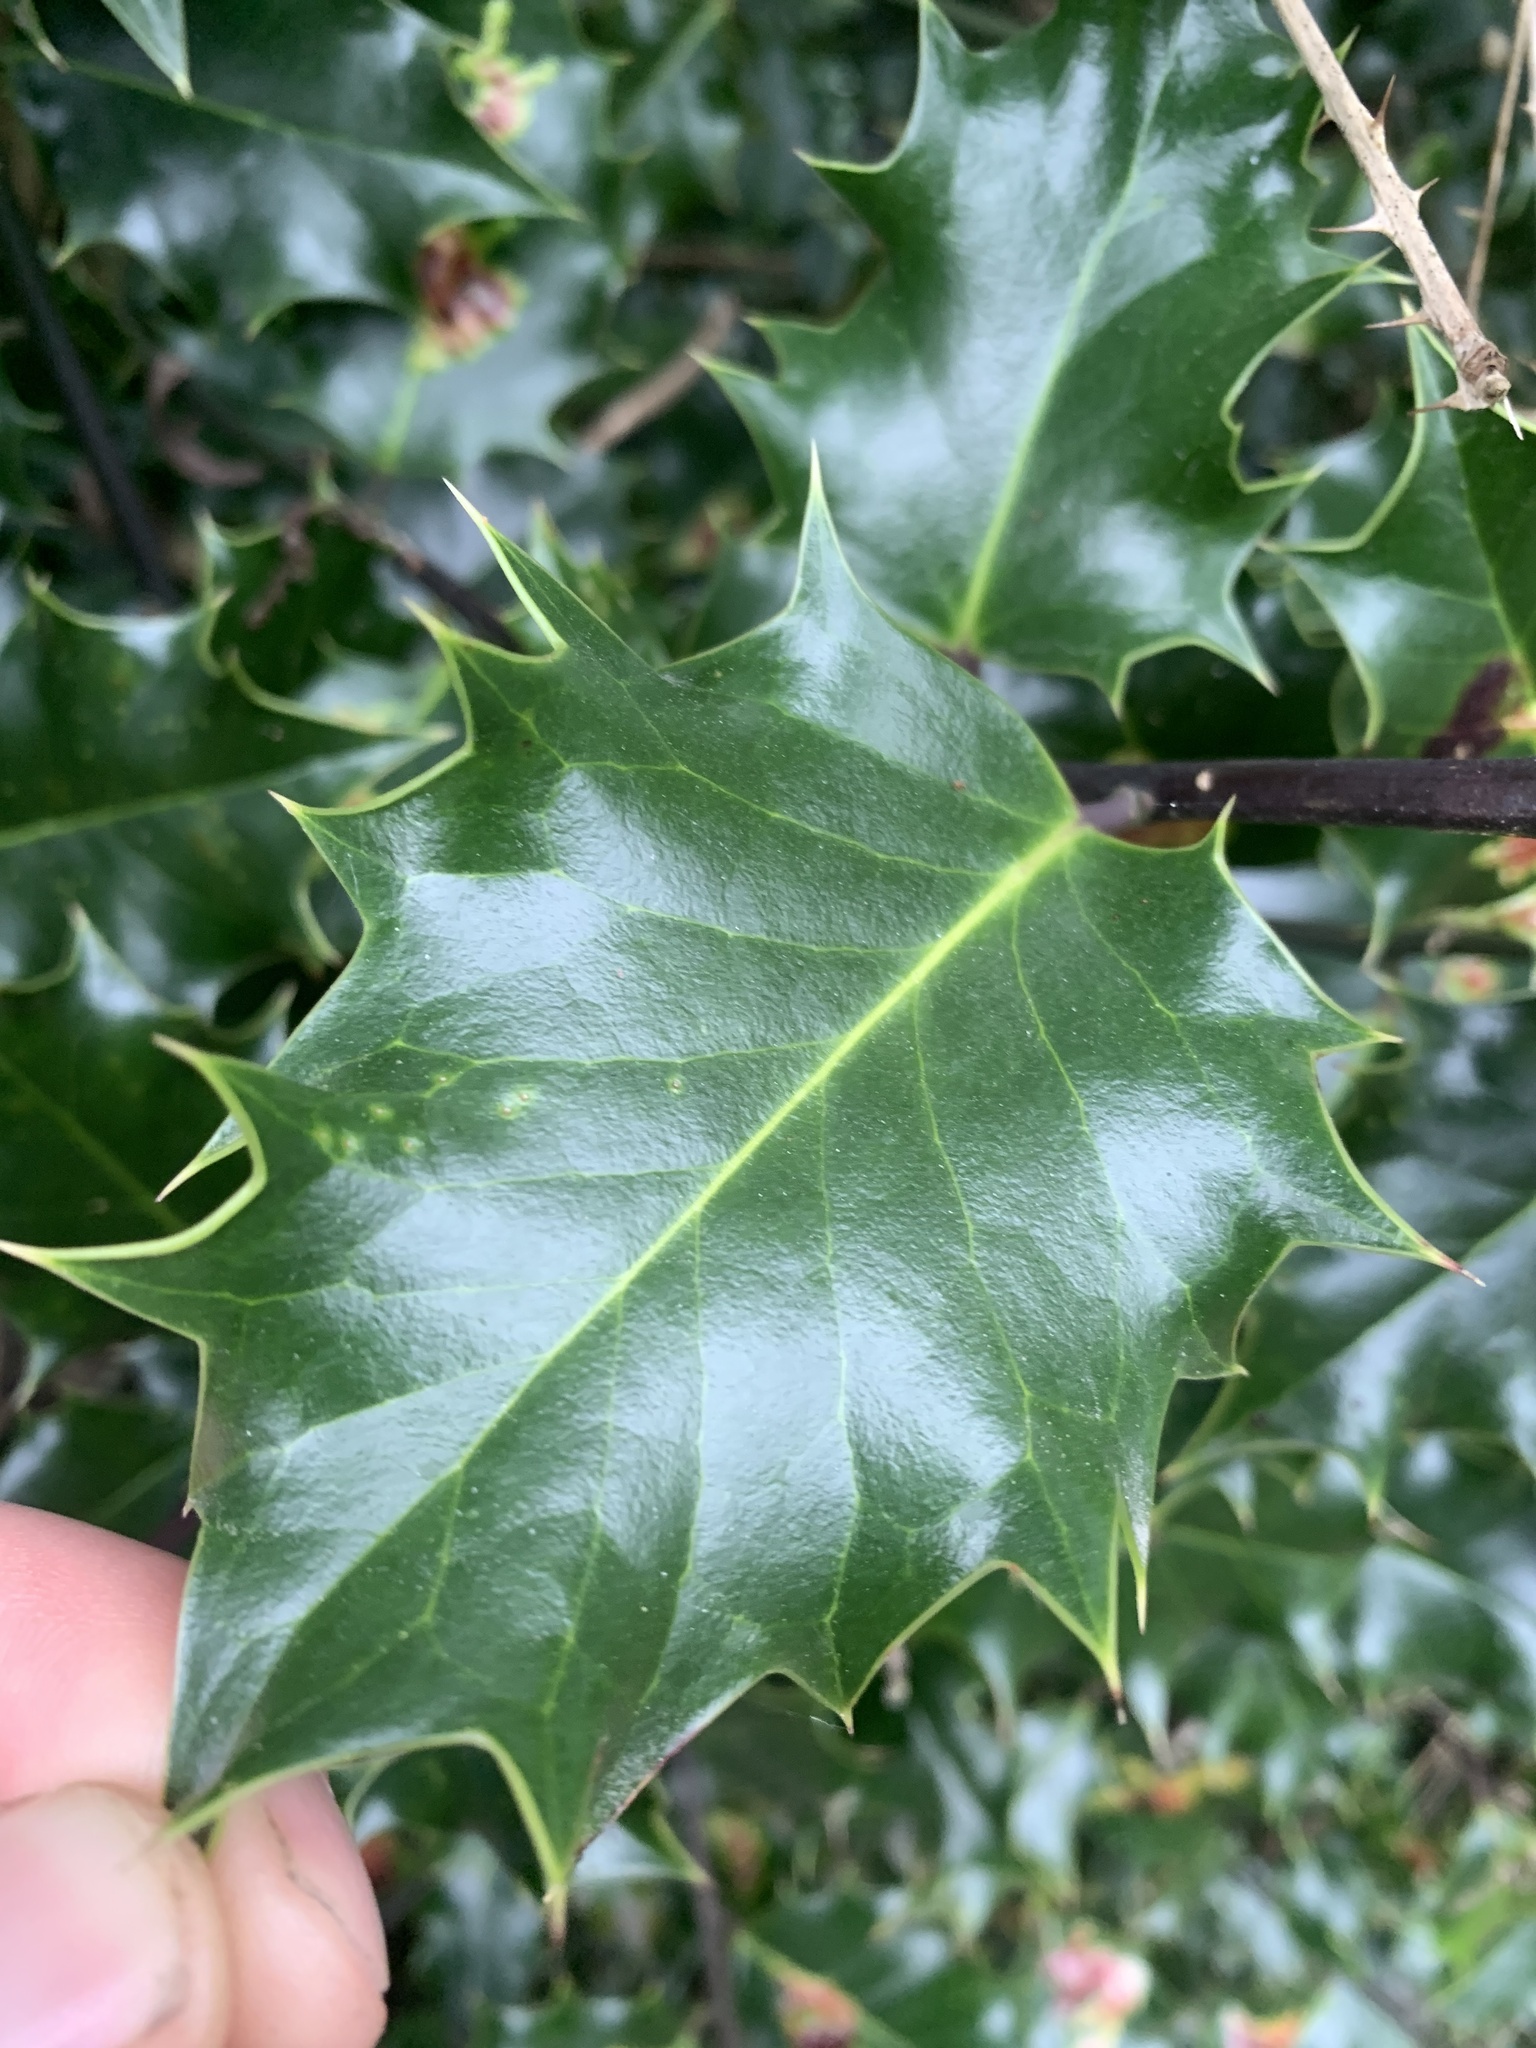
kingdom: Plantae
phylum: Tracheophyta
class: Magnoliopsida
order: Aquifoliales
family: Aquifoliaceae
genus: Ilex
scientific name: Ilex aquifolium
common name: English holly
